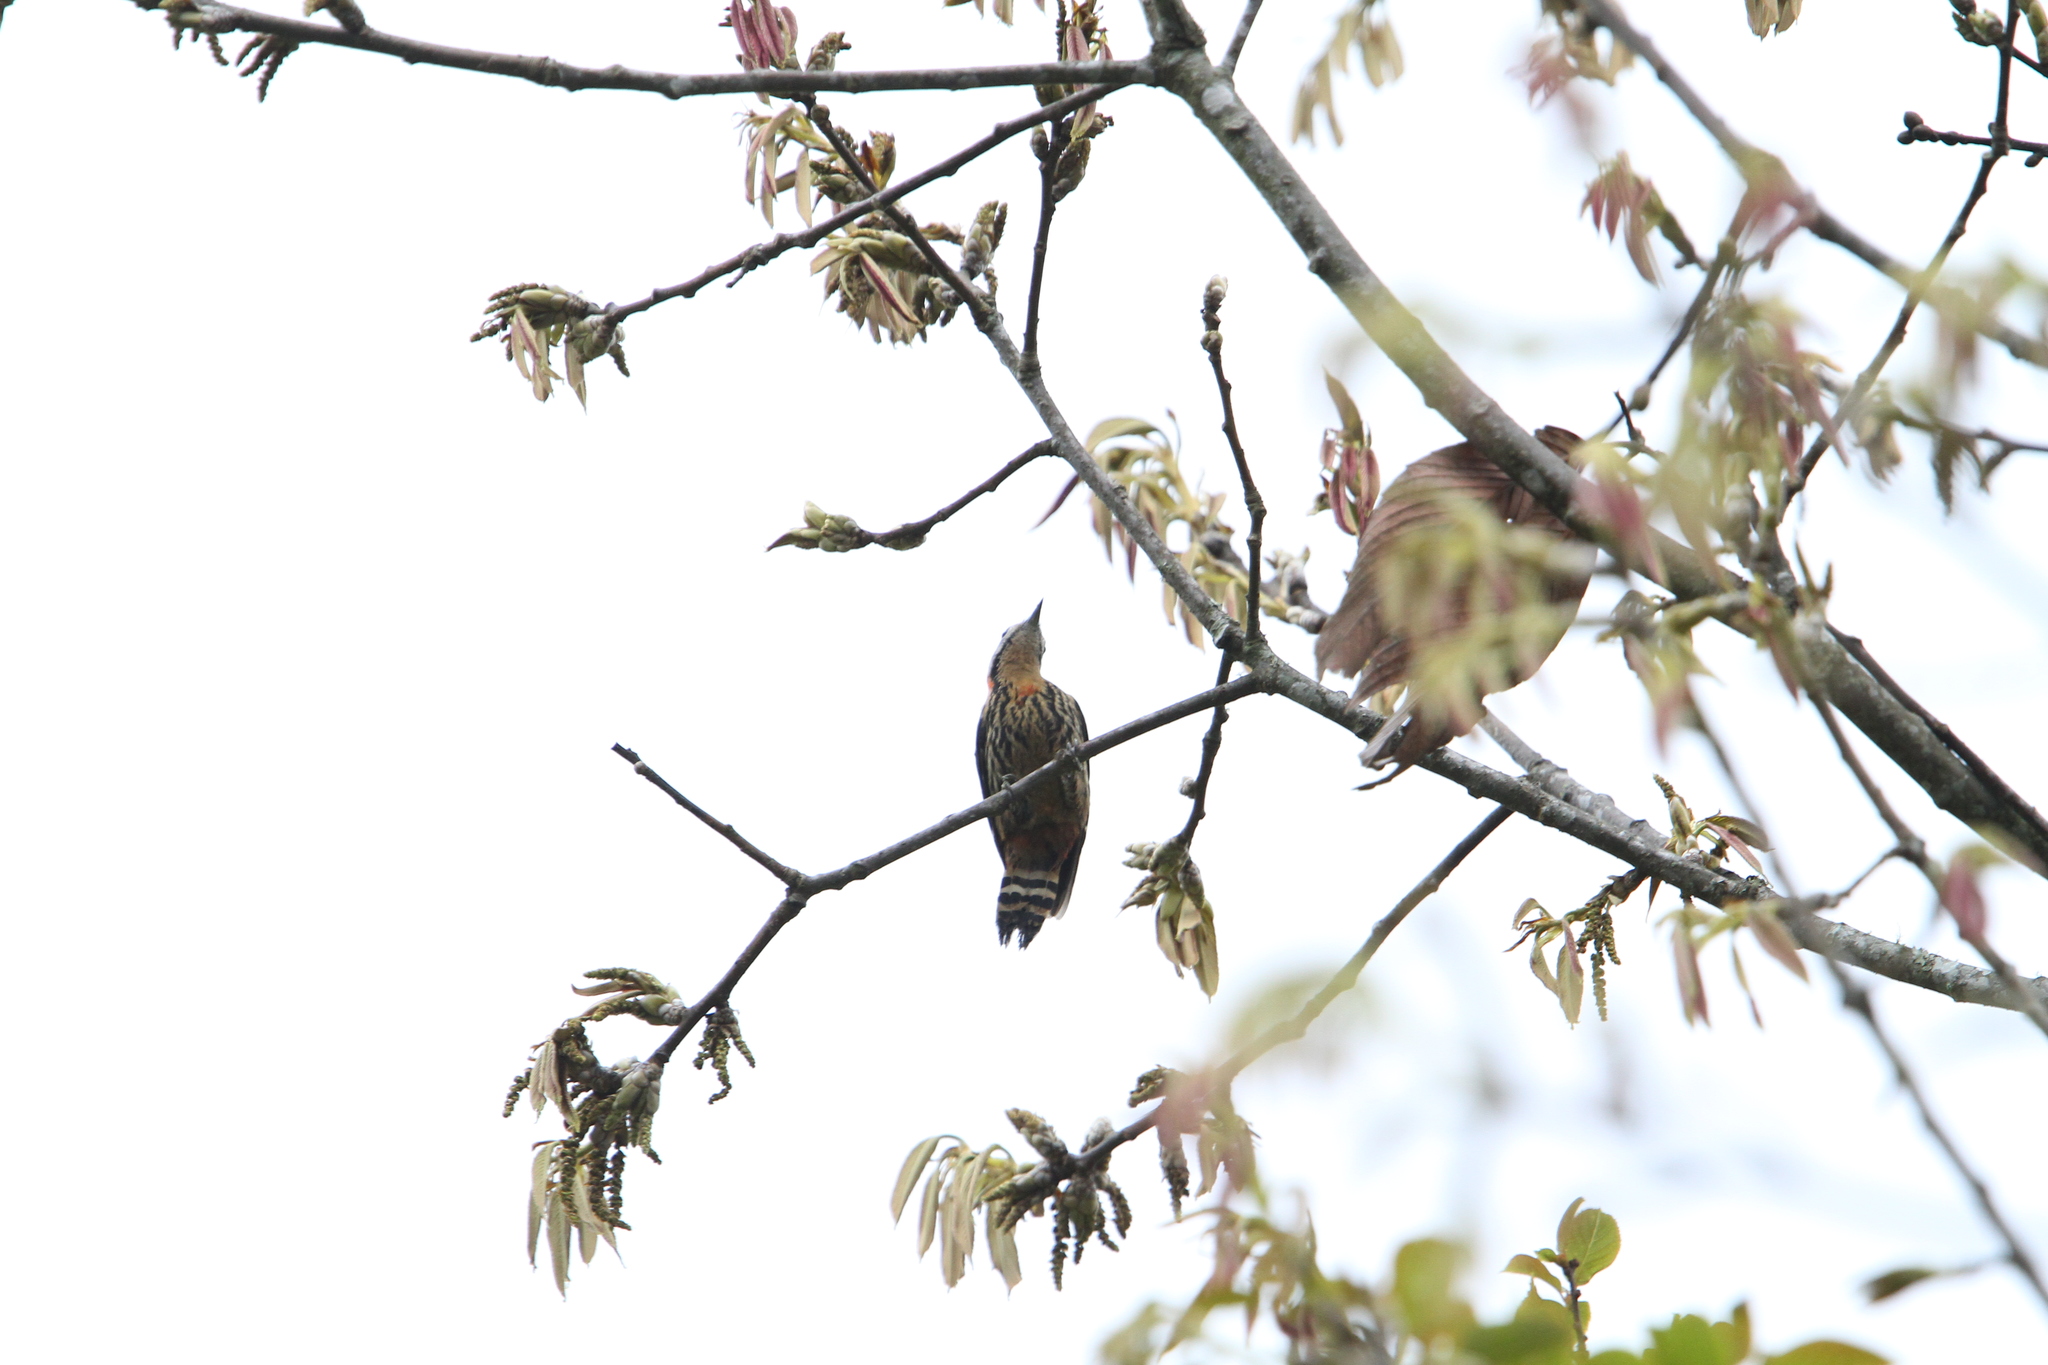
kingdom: Animalia
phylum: Chordata
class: Aves
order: Piciformes
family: Picidae
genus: Dryobates
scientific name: Dryobates cathpharius
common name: Crimson-breasted woodpecker
